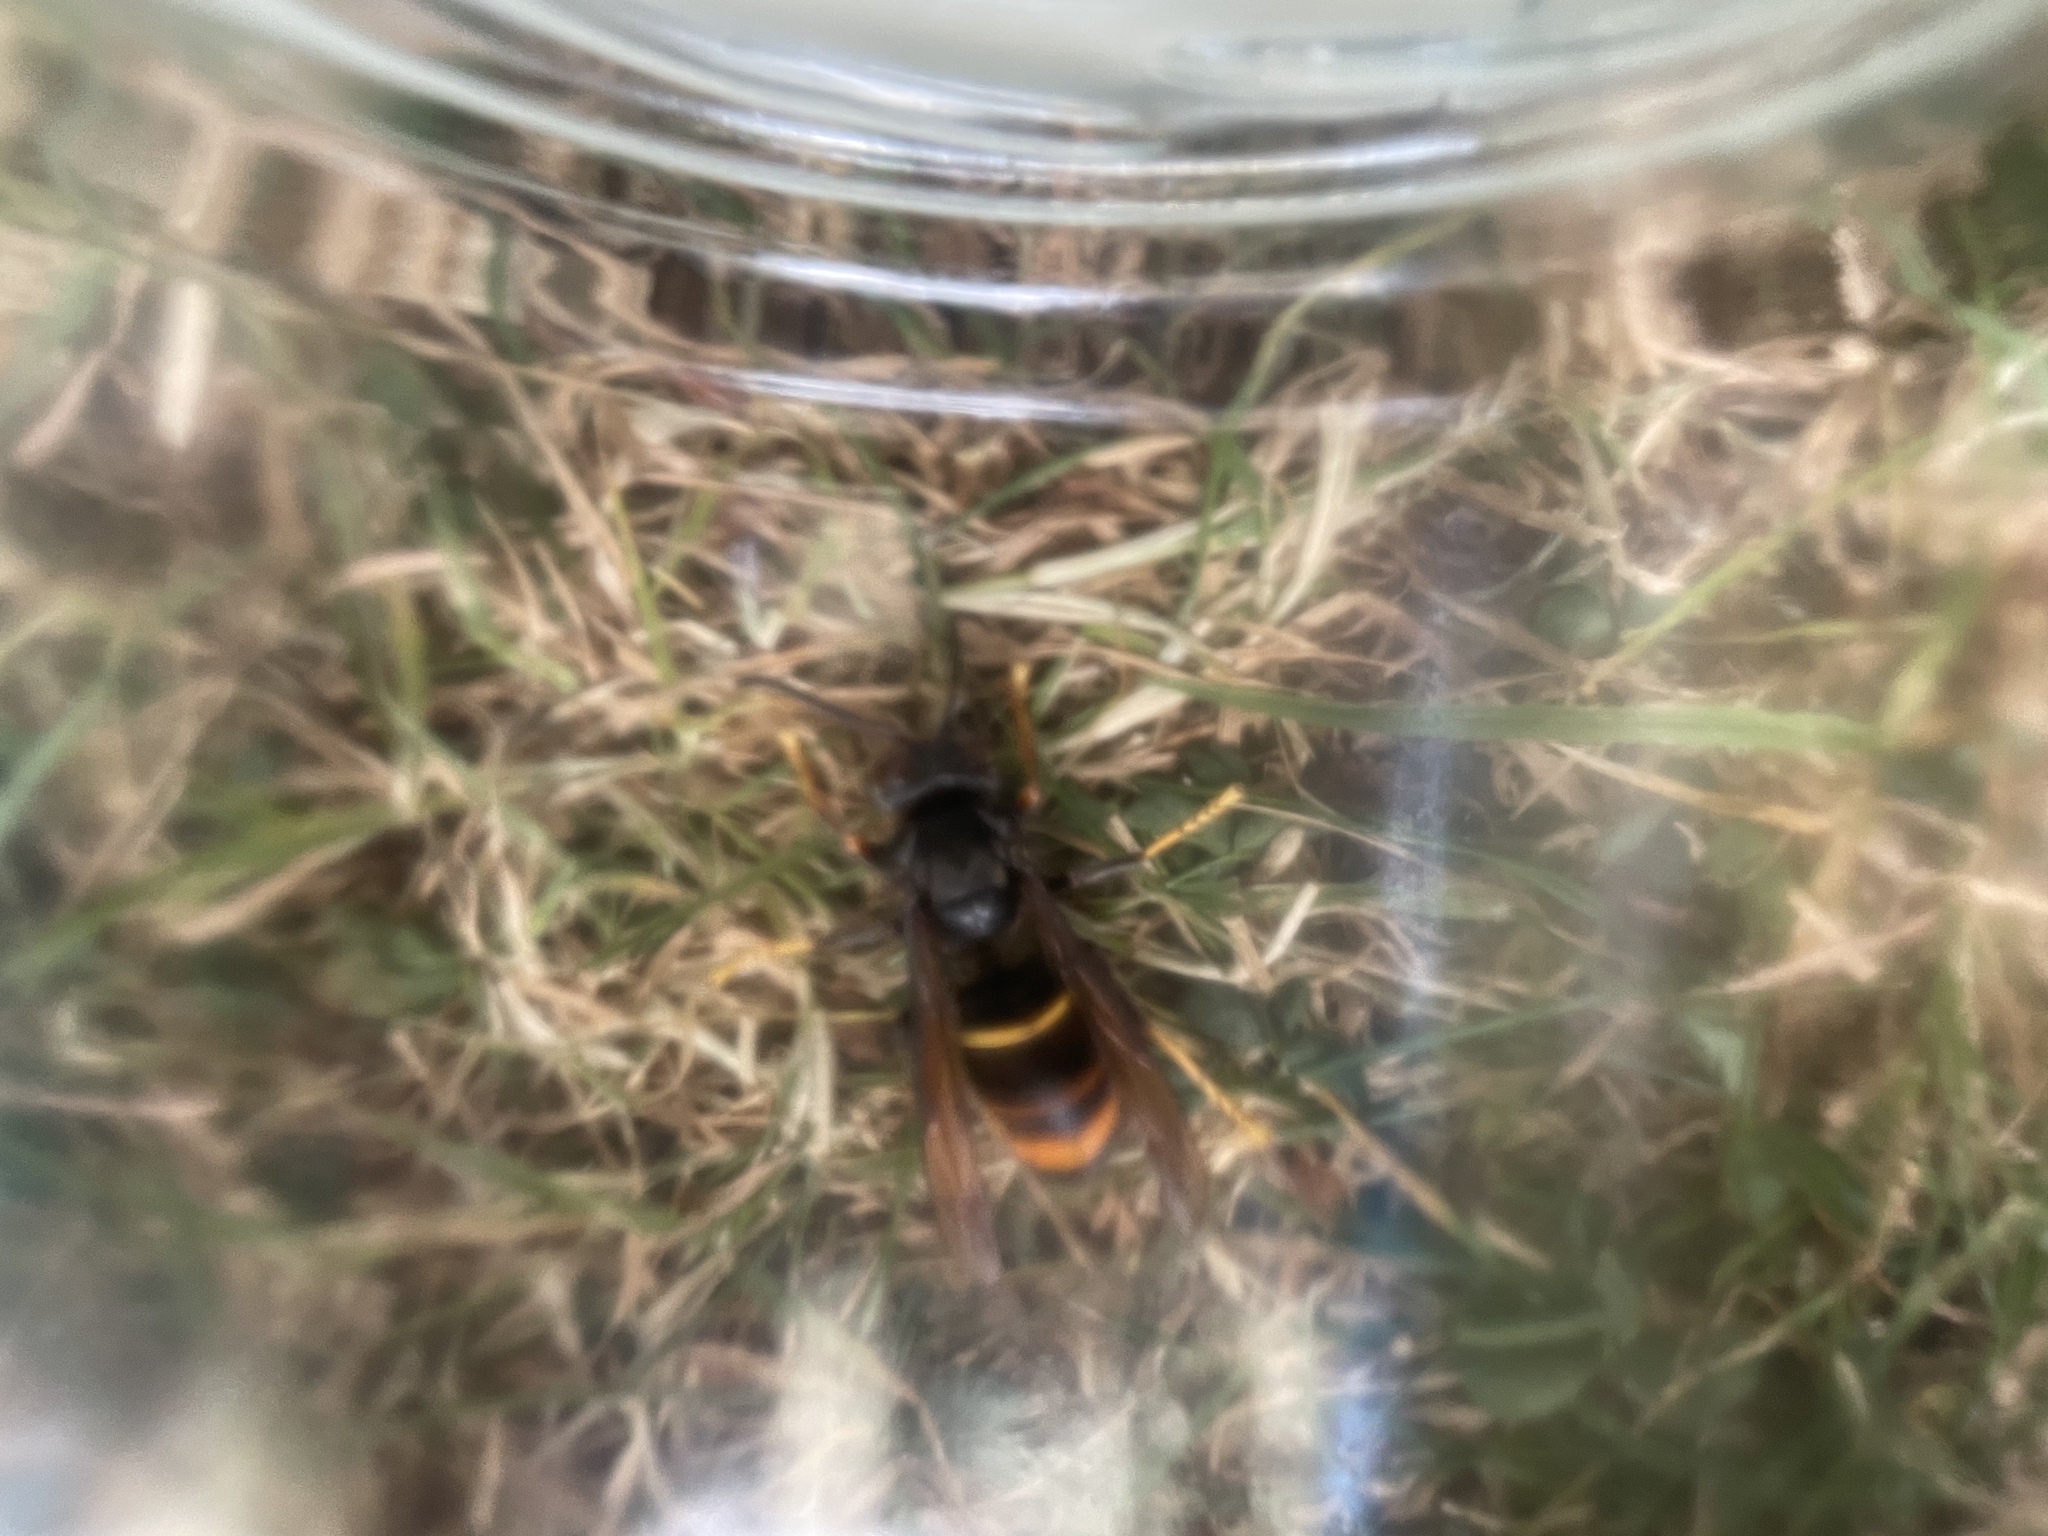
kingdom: Animalia
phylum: Arthropoda
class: Insecta
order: Hymenoptera
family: Vespidae
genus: Vespa
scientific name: Vespa velutina
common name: Asian hornet
